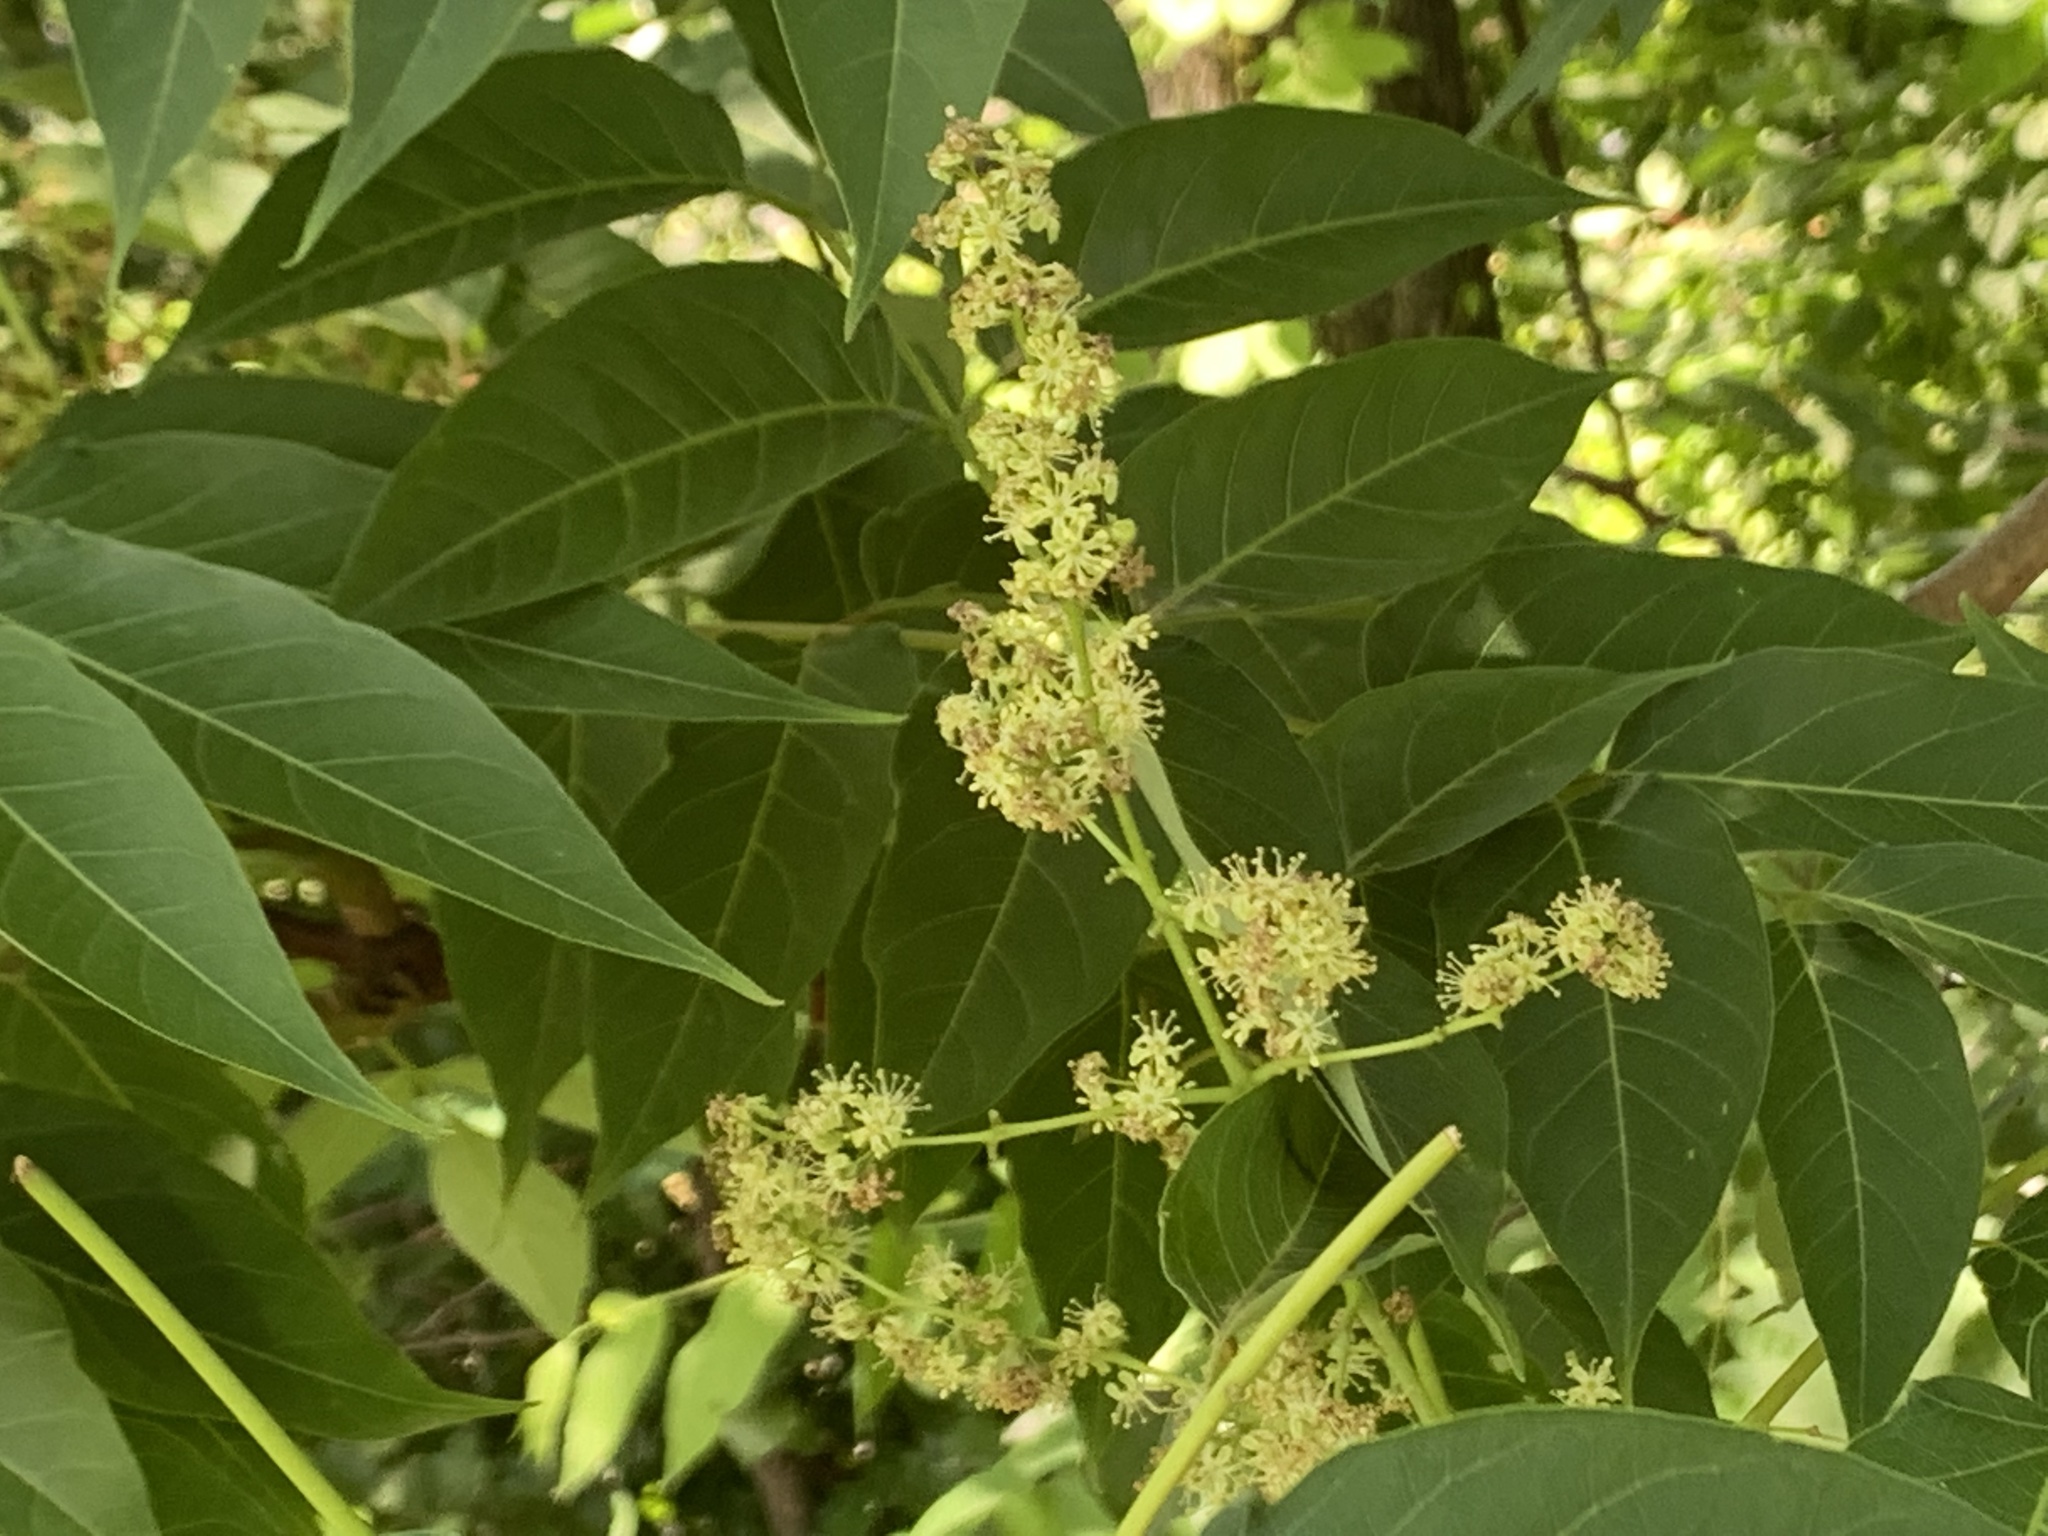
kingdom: Plantae
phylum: Tracheophyta
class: Magnoliopsida
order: Sapindales
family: Simaroubaceae
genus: Ailanthus
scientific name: Ailanthus altissima
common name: Tree-of-heaven
